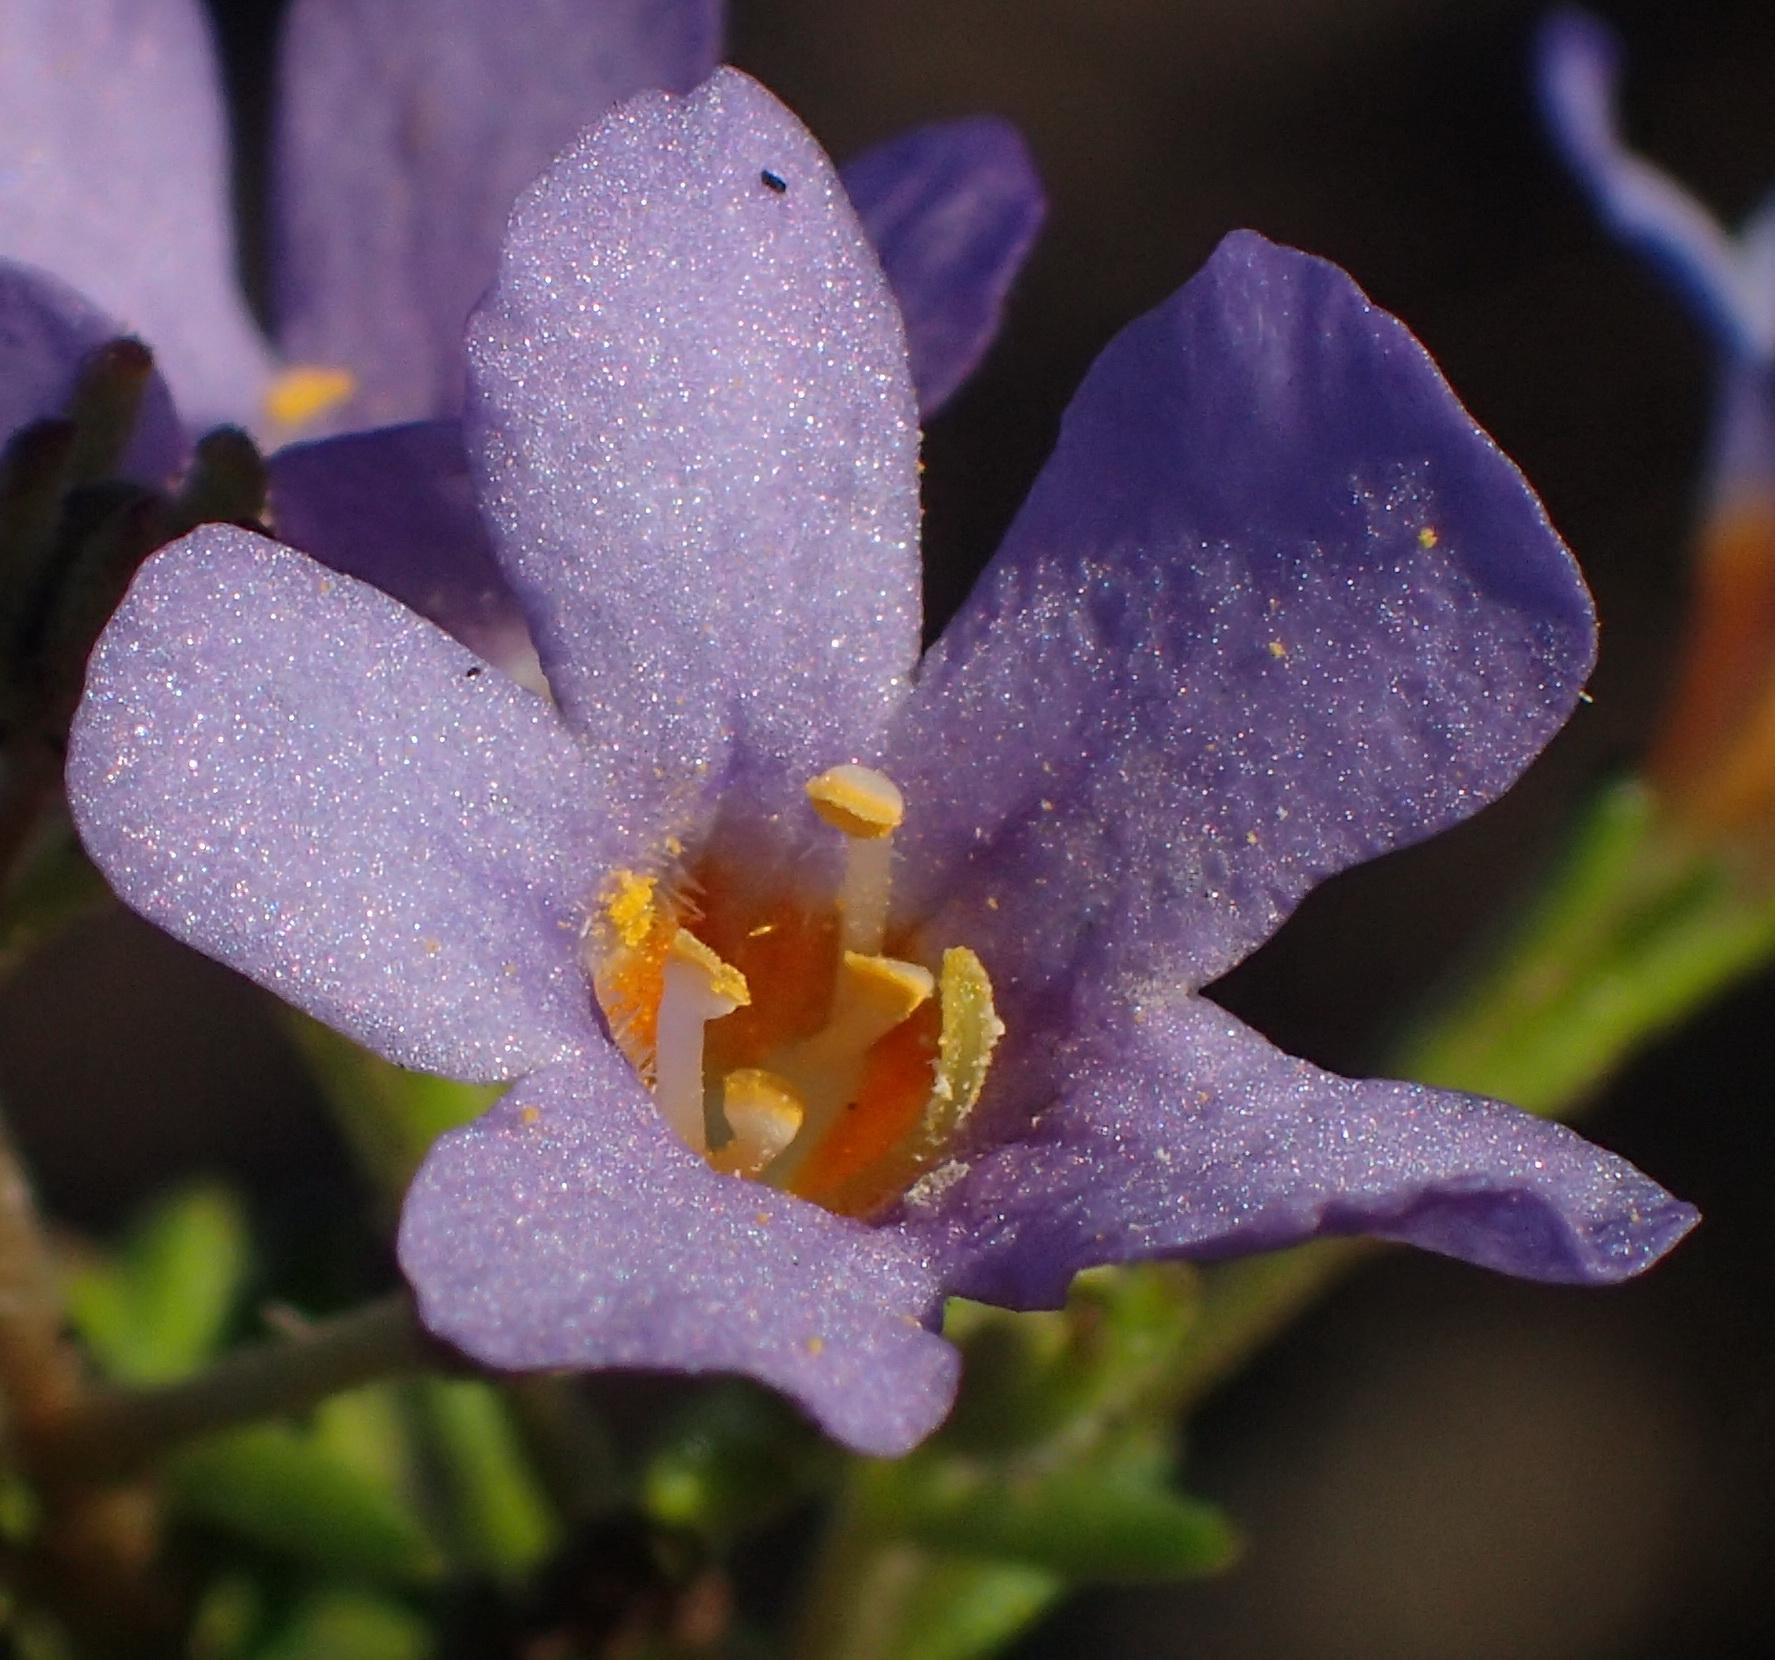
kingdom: Plantae
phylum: Tracheophyta
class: Magnoliopsida
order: Lamiales
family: Scrophulariaceae
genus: Chaenostoma
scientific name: Chaenostoma polyanthum
